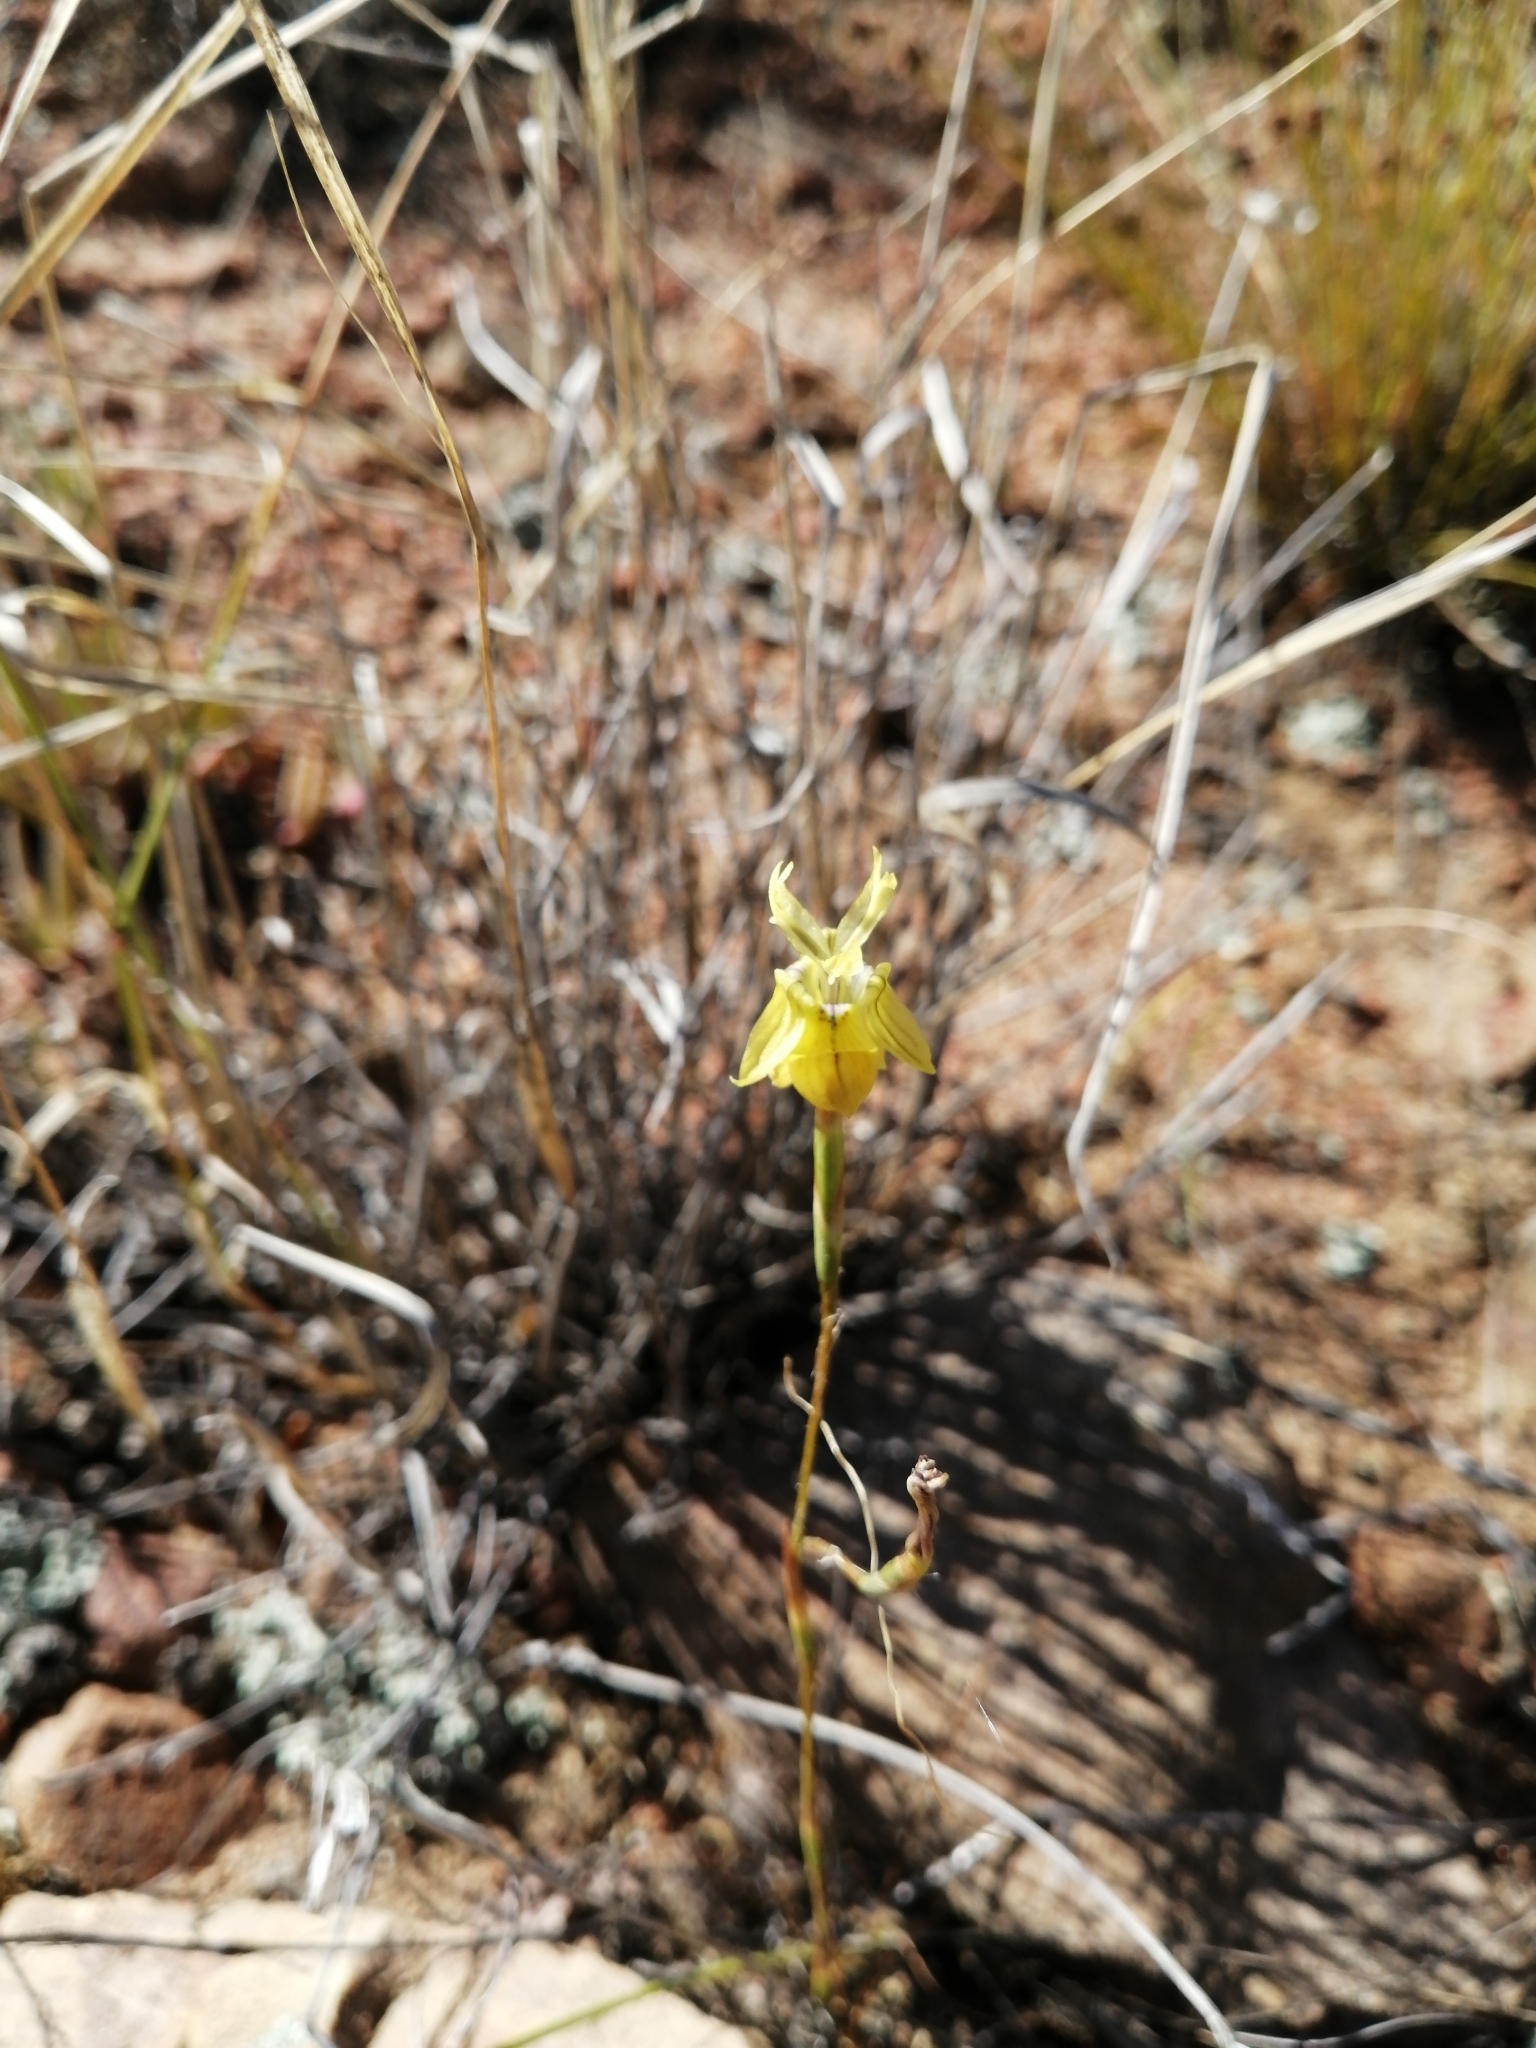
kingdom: Plantae
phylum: Tracheophyta
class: Liliopsida
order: Asparagales
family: Iridaceae
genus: Moraea
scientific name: Moraea inconspicua
